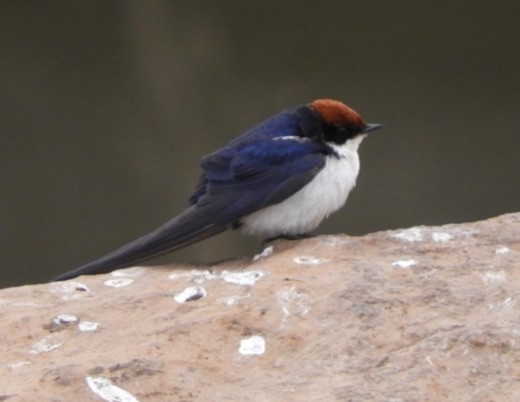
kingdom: Animalia
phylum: Chordata
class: Aves
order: Passeriformes
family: Hirundinidae
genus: Hirundo
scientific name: Hirundo smithii
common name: Wire-tailed swallow
